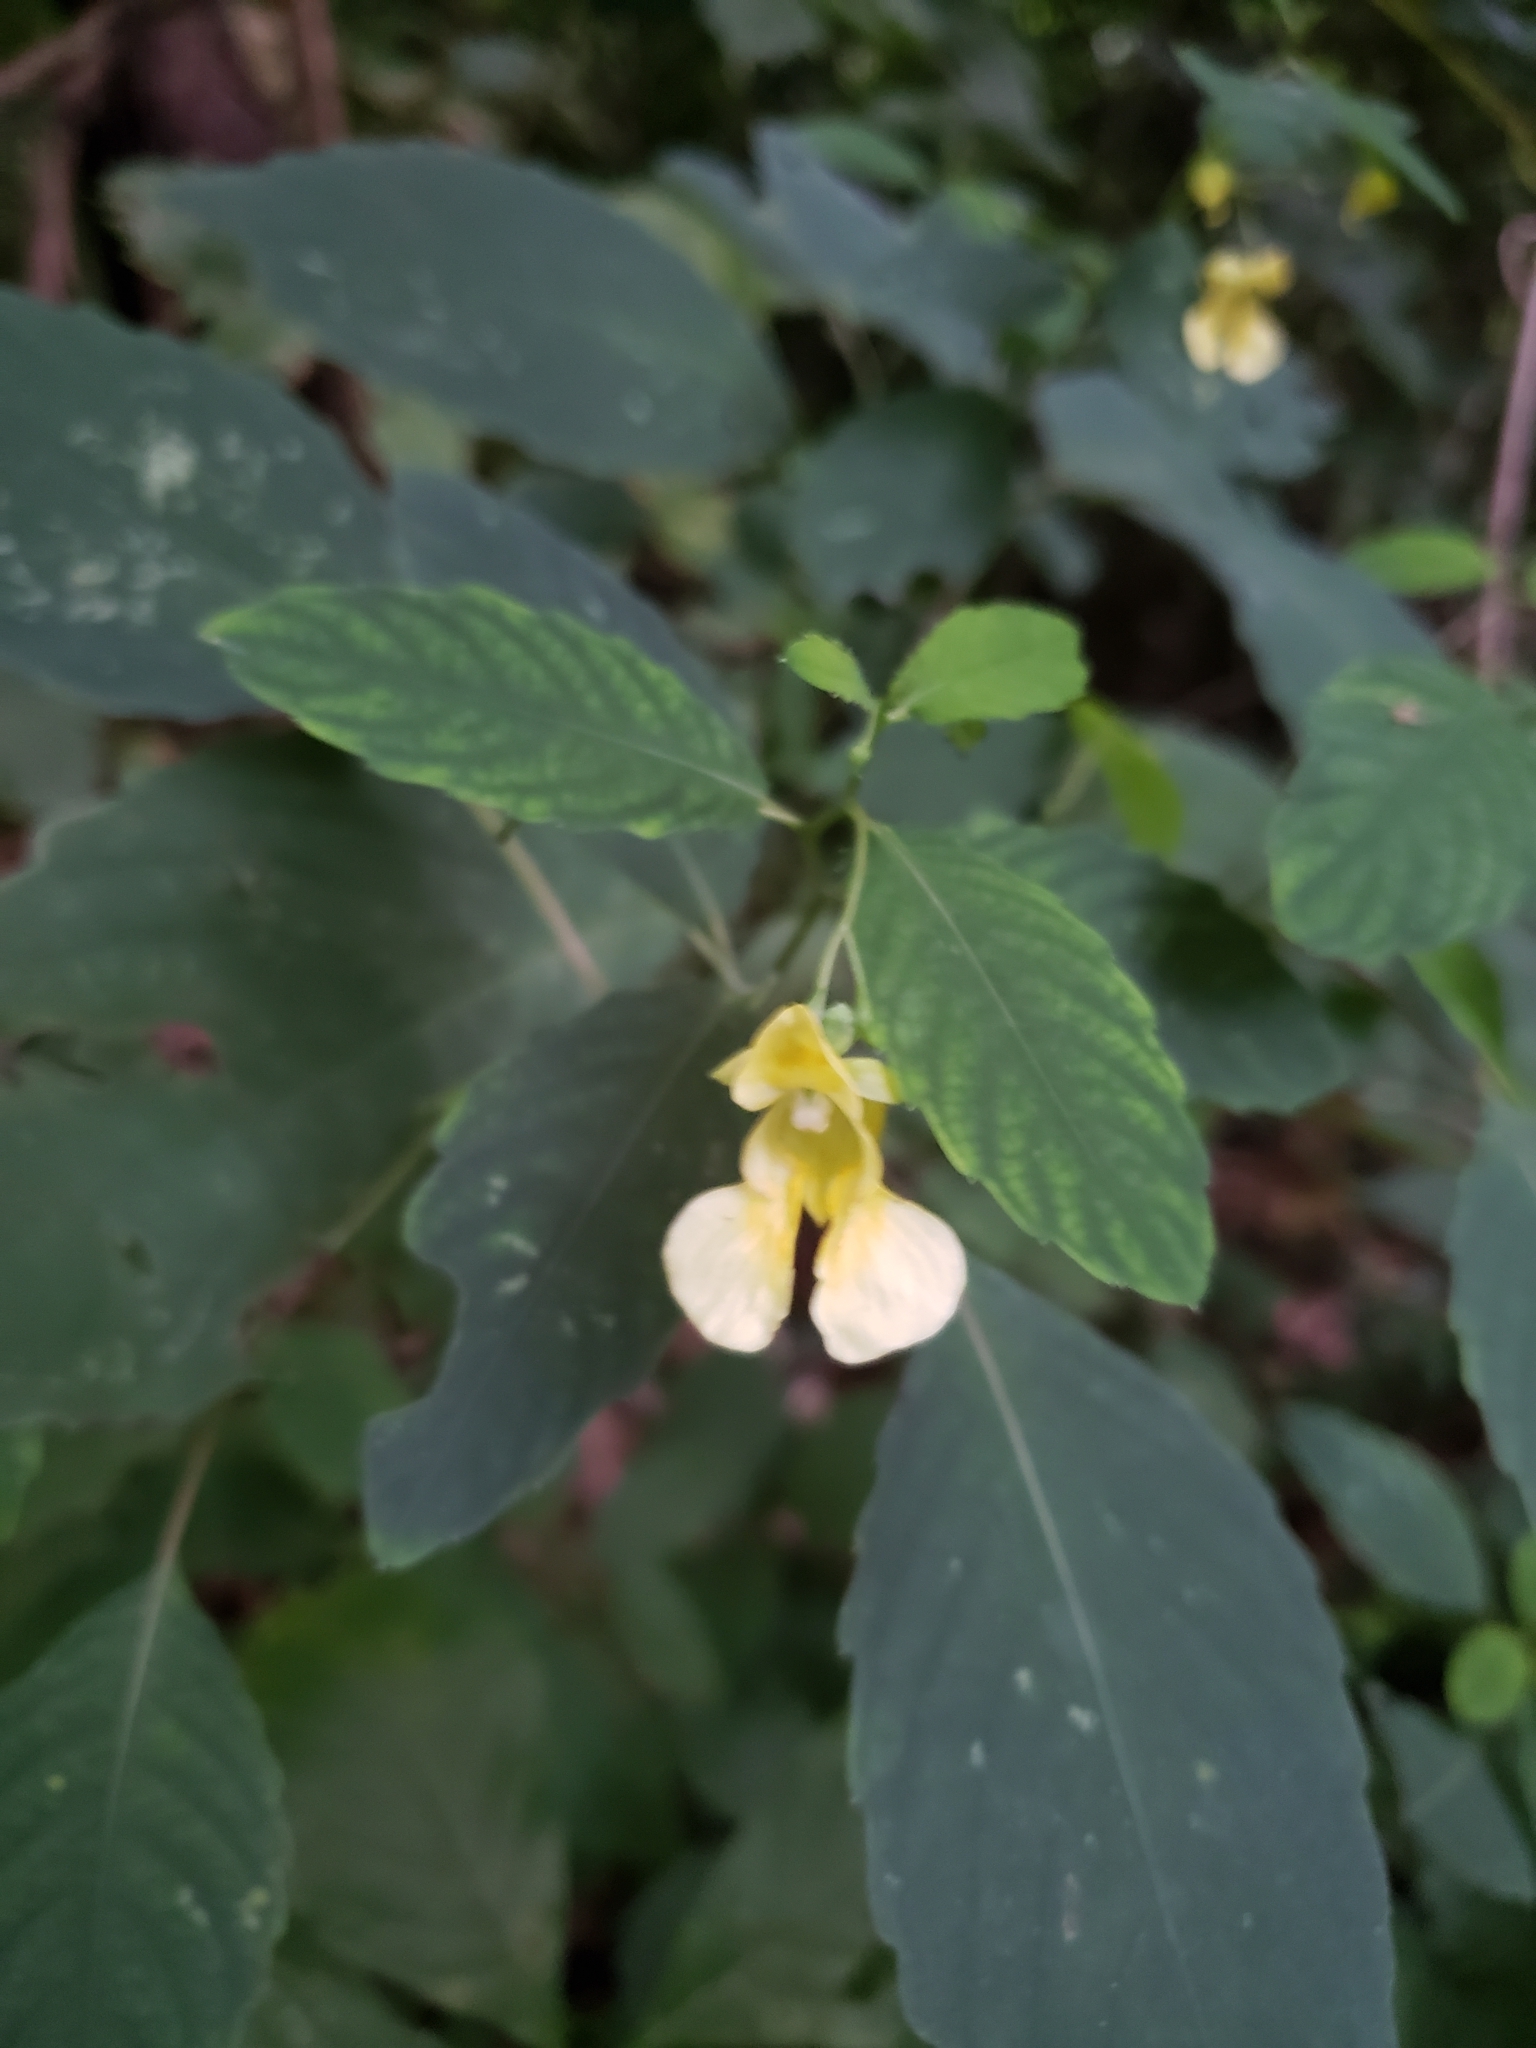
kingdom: Plantae
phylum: Tracheophyta
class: Magnoliopsida
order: Ericales
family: Balsaminaceae
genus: Impatiens
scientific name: Impatiens pallida
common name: Pale snapweed
